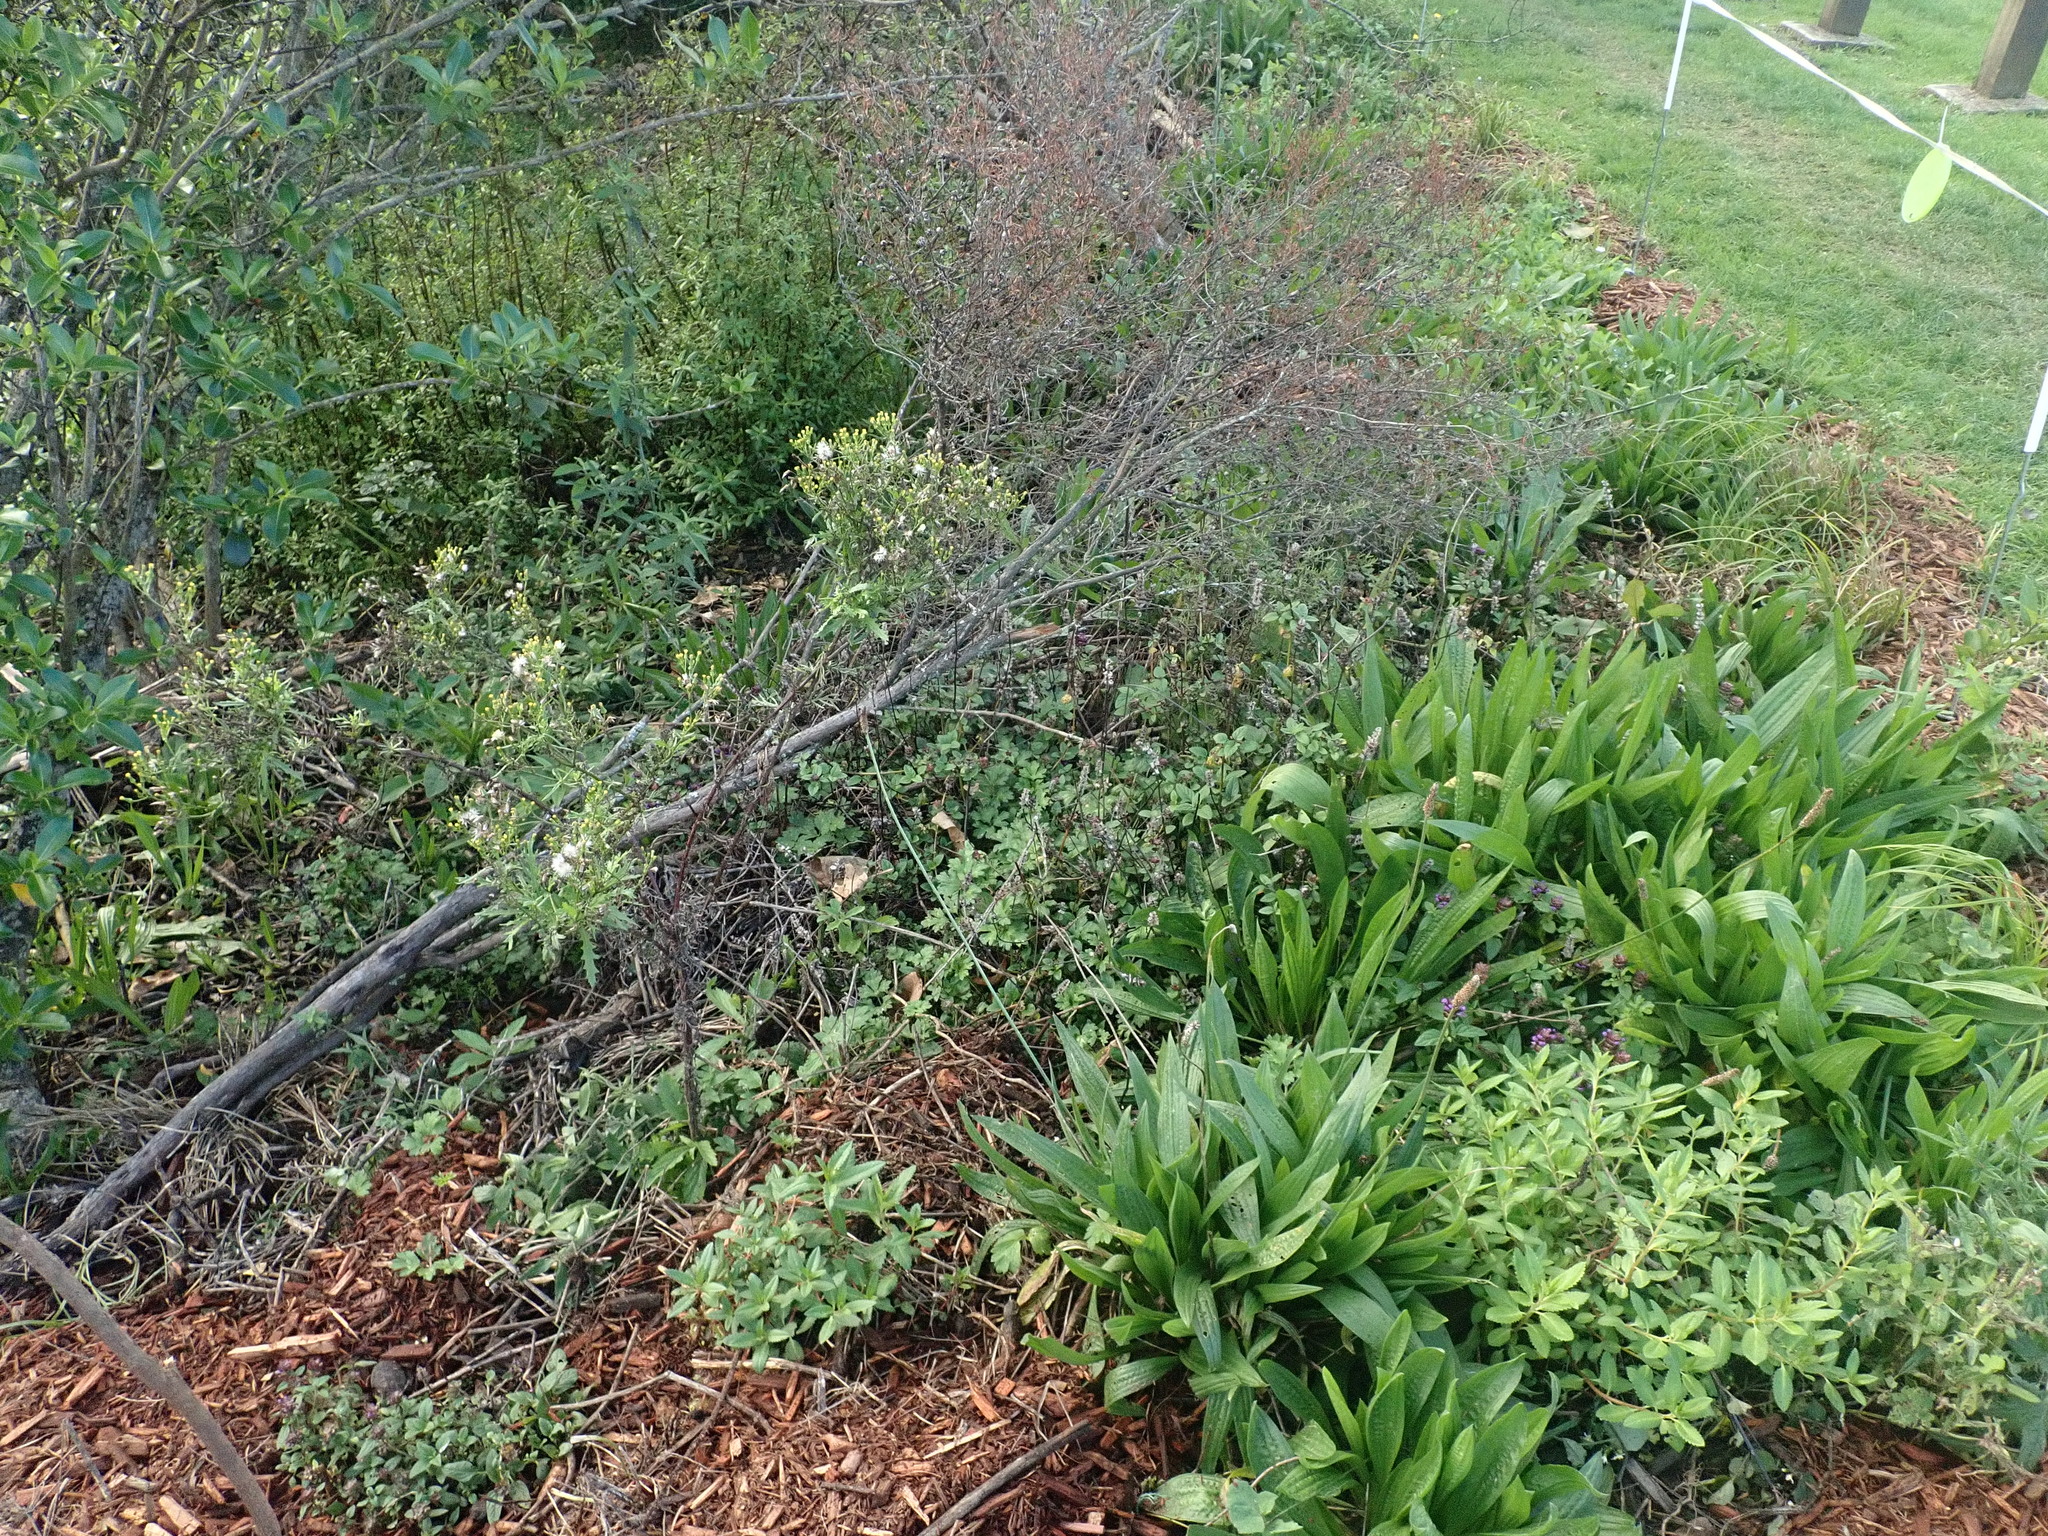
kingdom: Plantae
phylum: Tracheophyta
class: Magnoliopsida
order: Asterales
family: Asteraceae
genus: Senecio
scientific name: Senecio esleri
